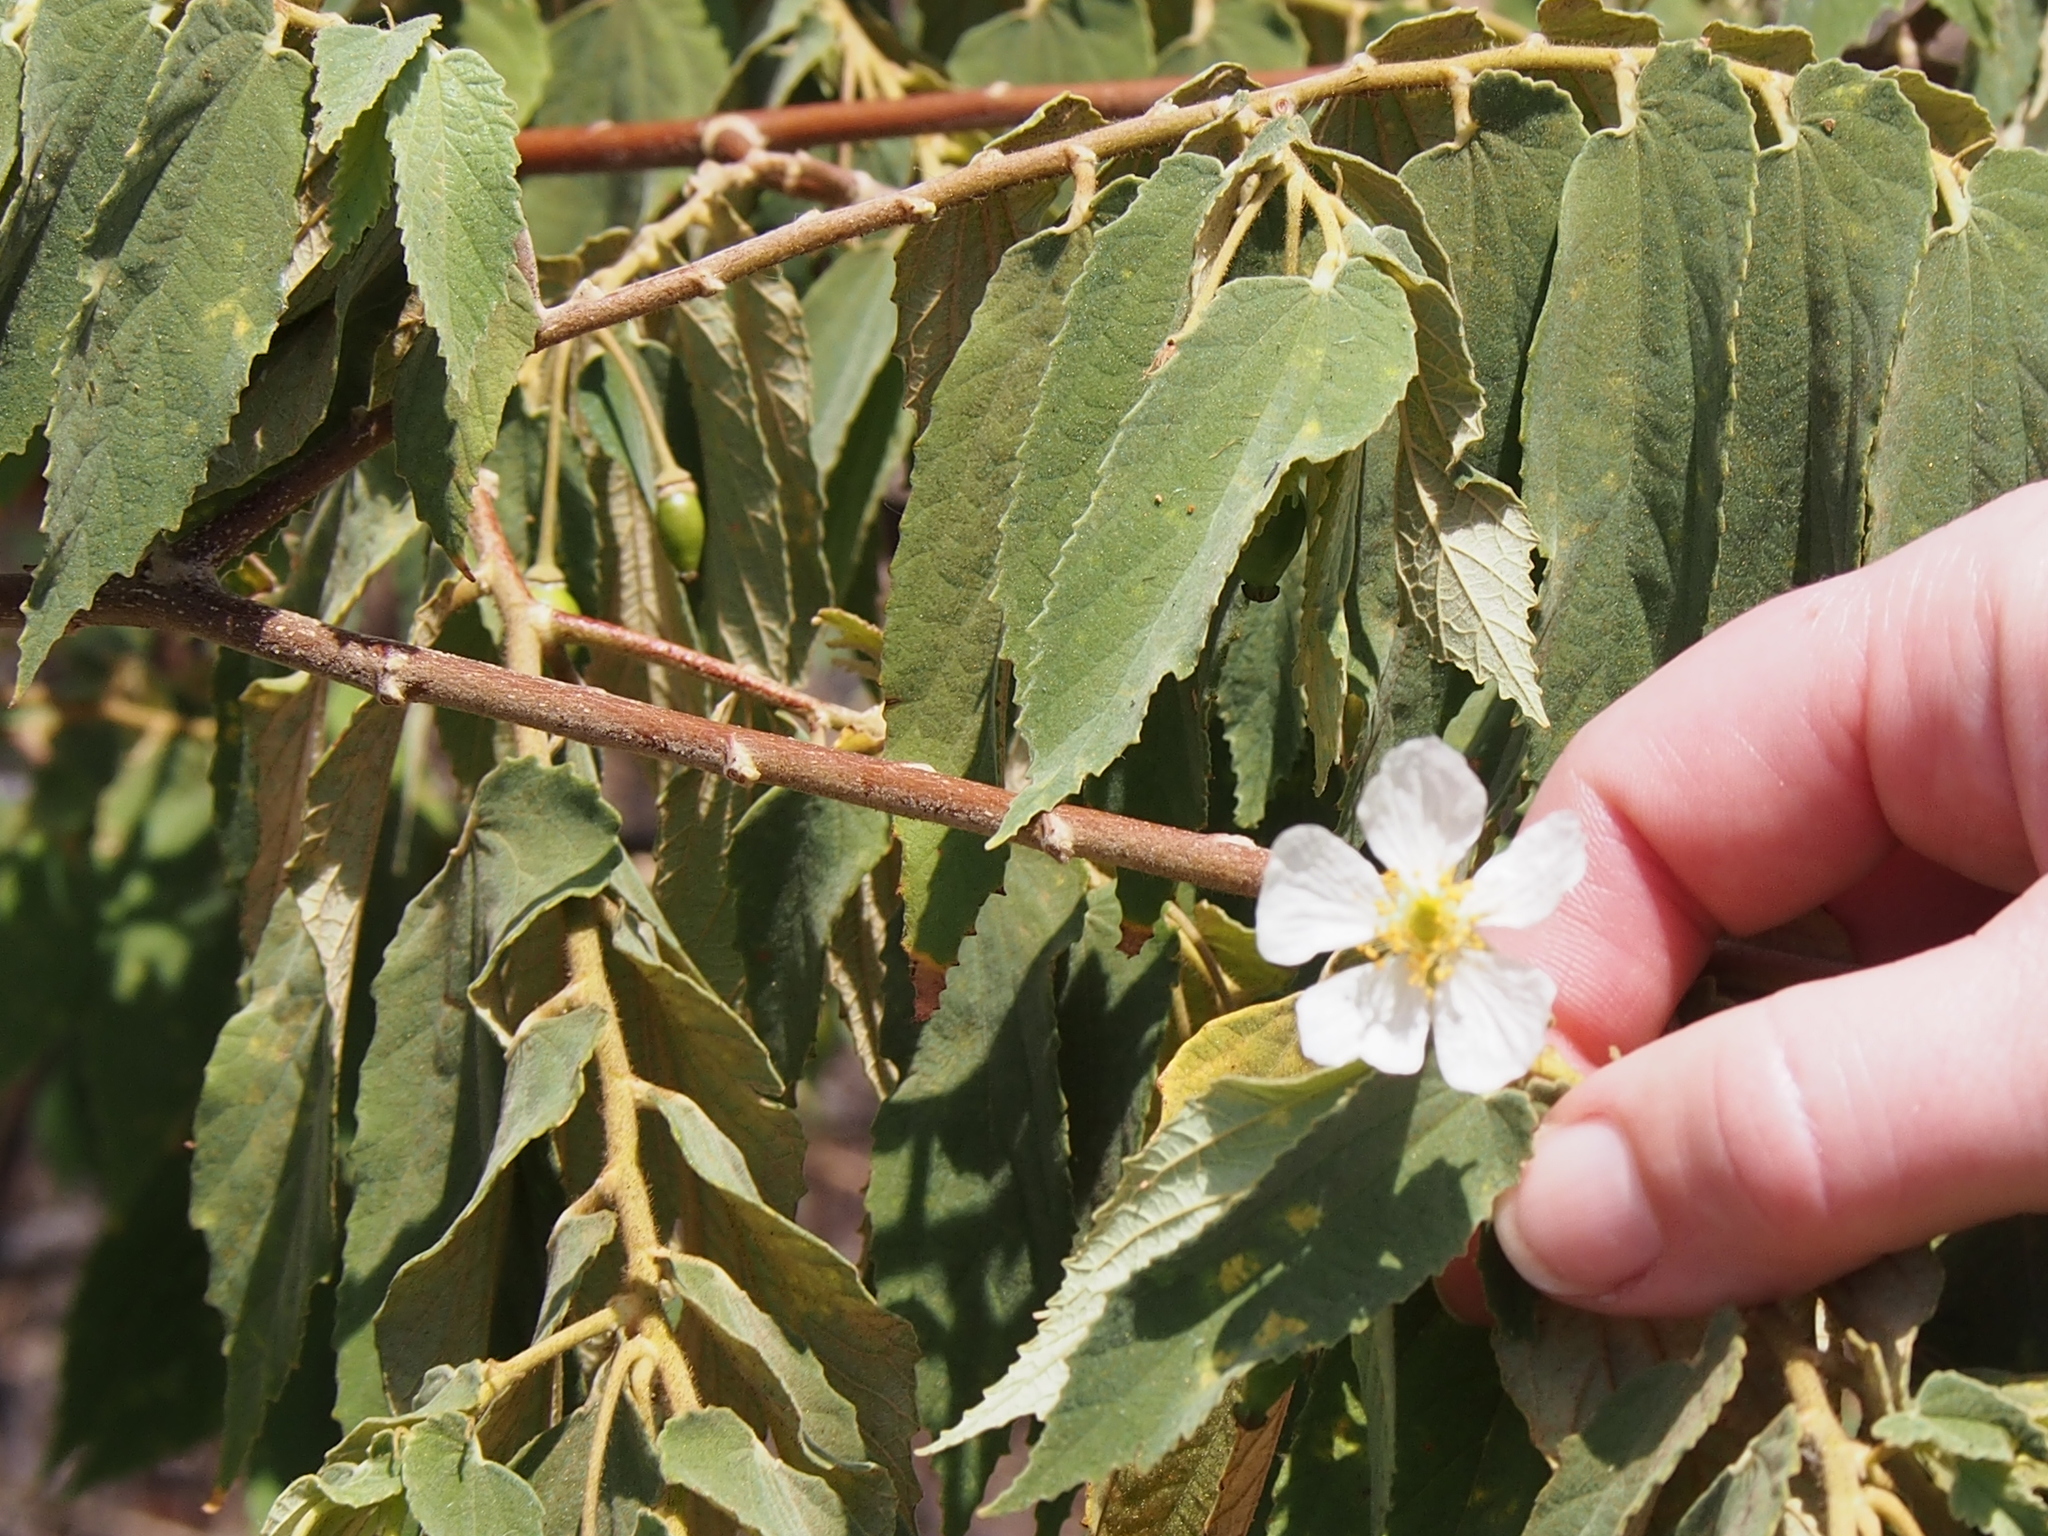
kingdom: Plantae
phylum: Tracheophyta
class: Magnoliopsida
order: Malvales
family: Muntingiaceae
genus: Muntingia
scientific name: Muntingia calabura
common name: Strawberrytree
